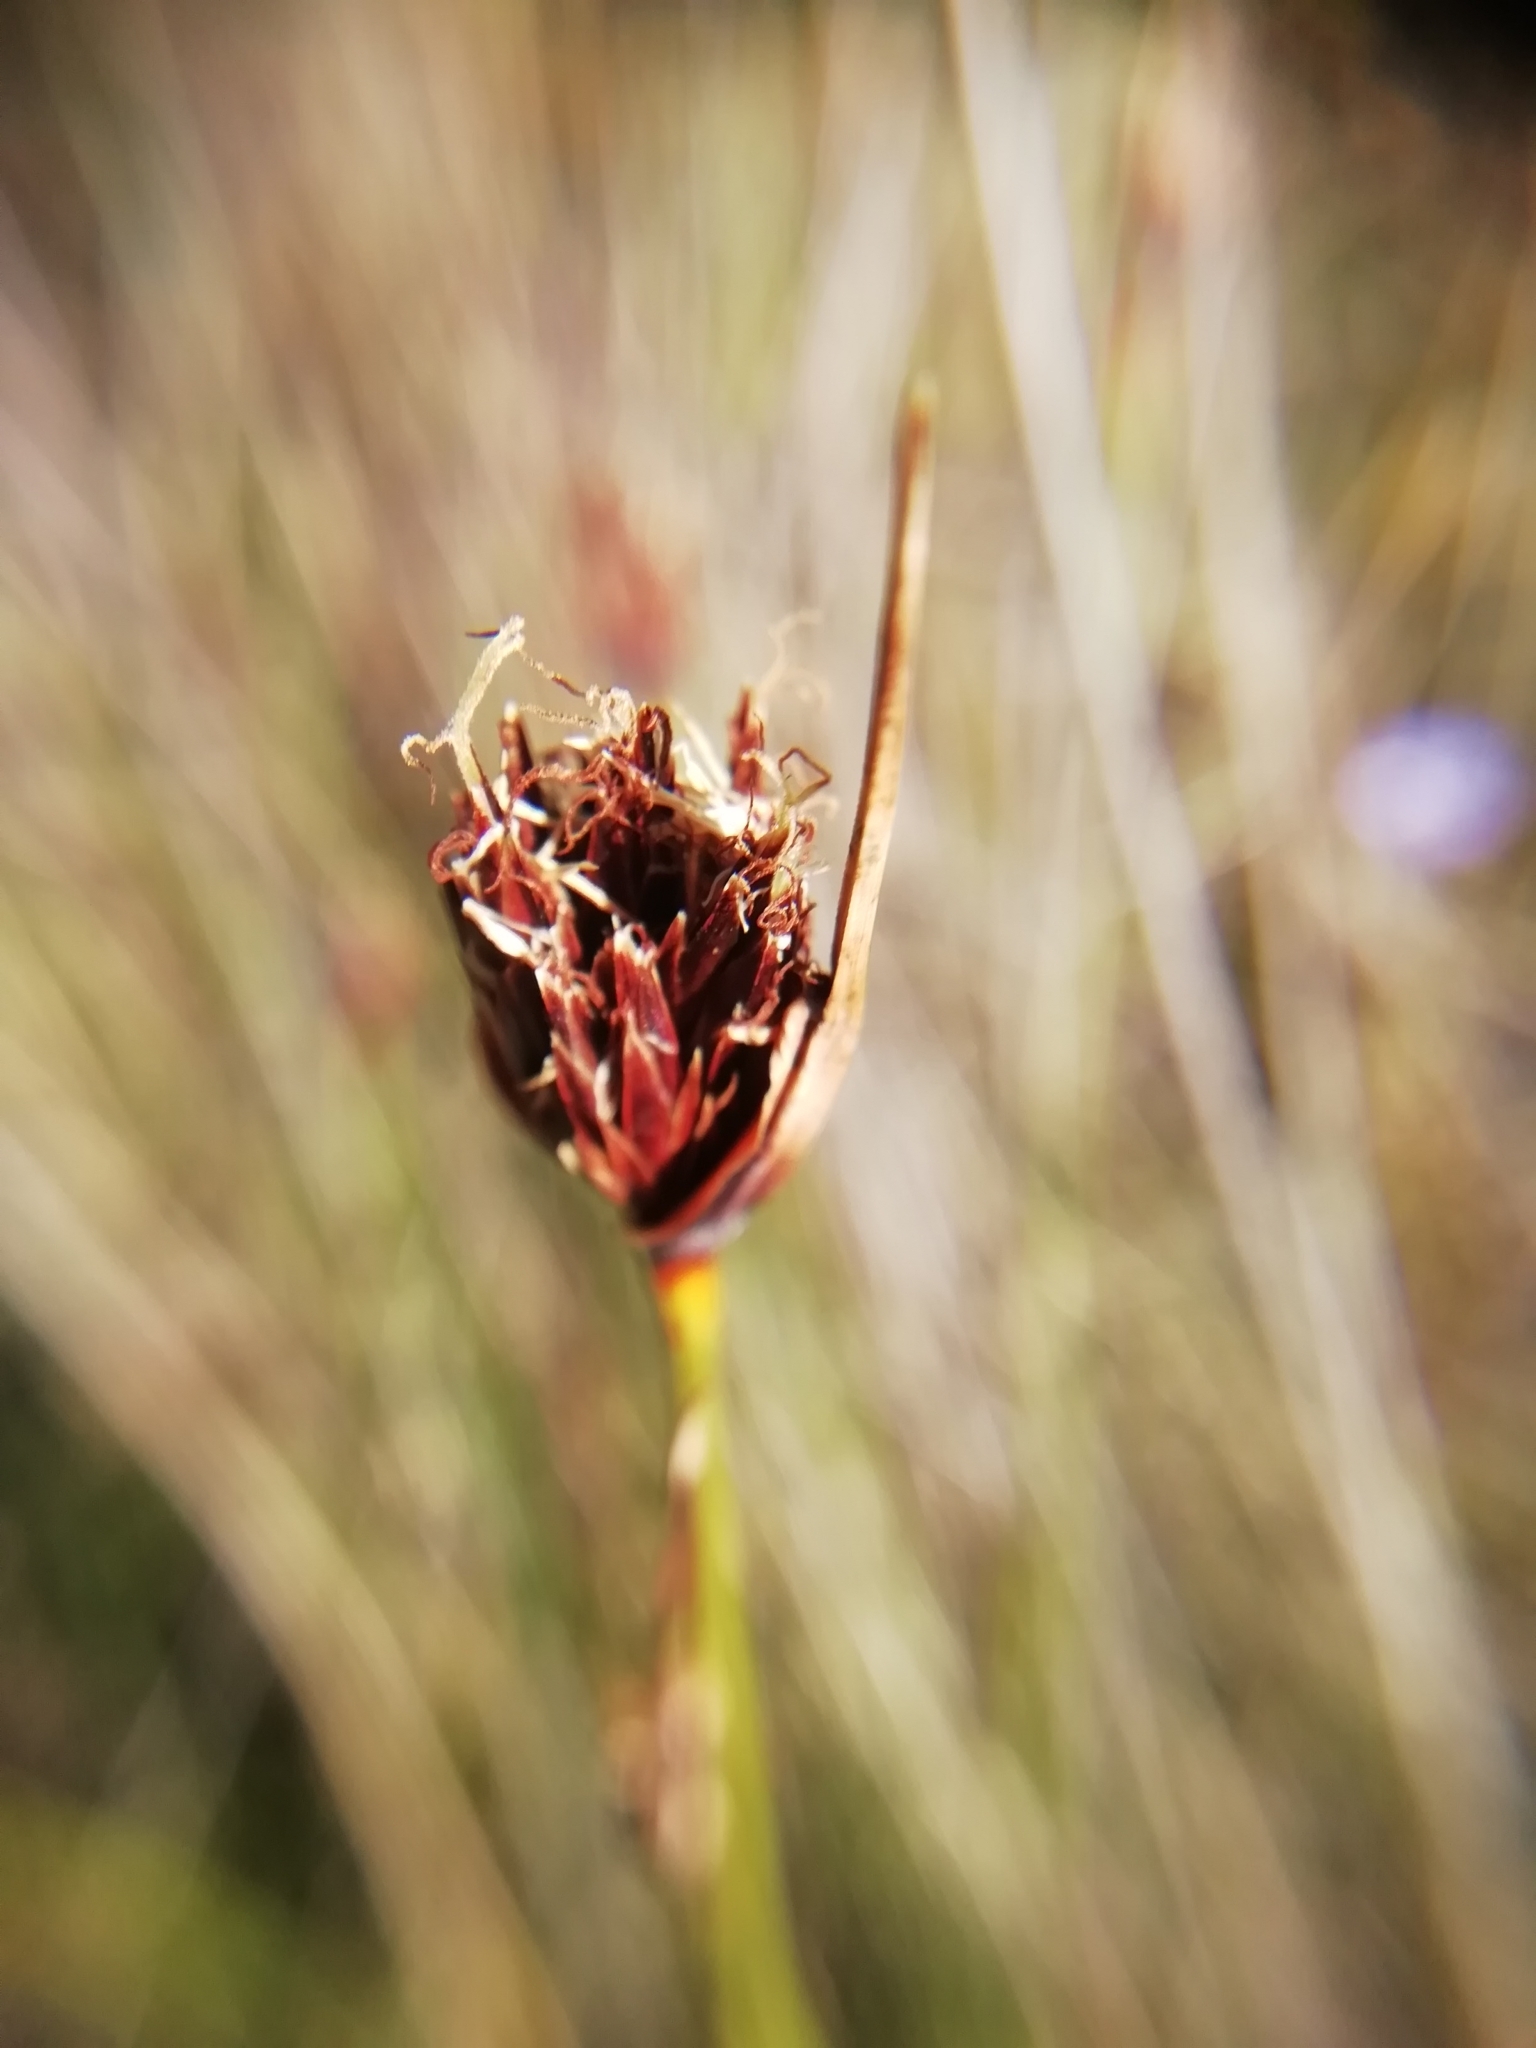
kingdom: Plantae
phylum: Tracheophyta
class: Liliopsida
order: Poales
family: Cyperaceae
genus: Schoenus
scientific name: Schoenus nigricans
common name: Black bog-rush
